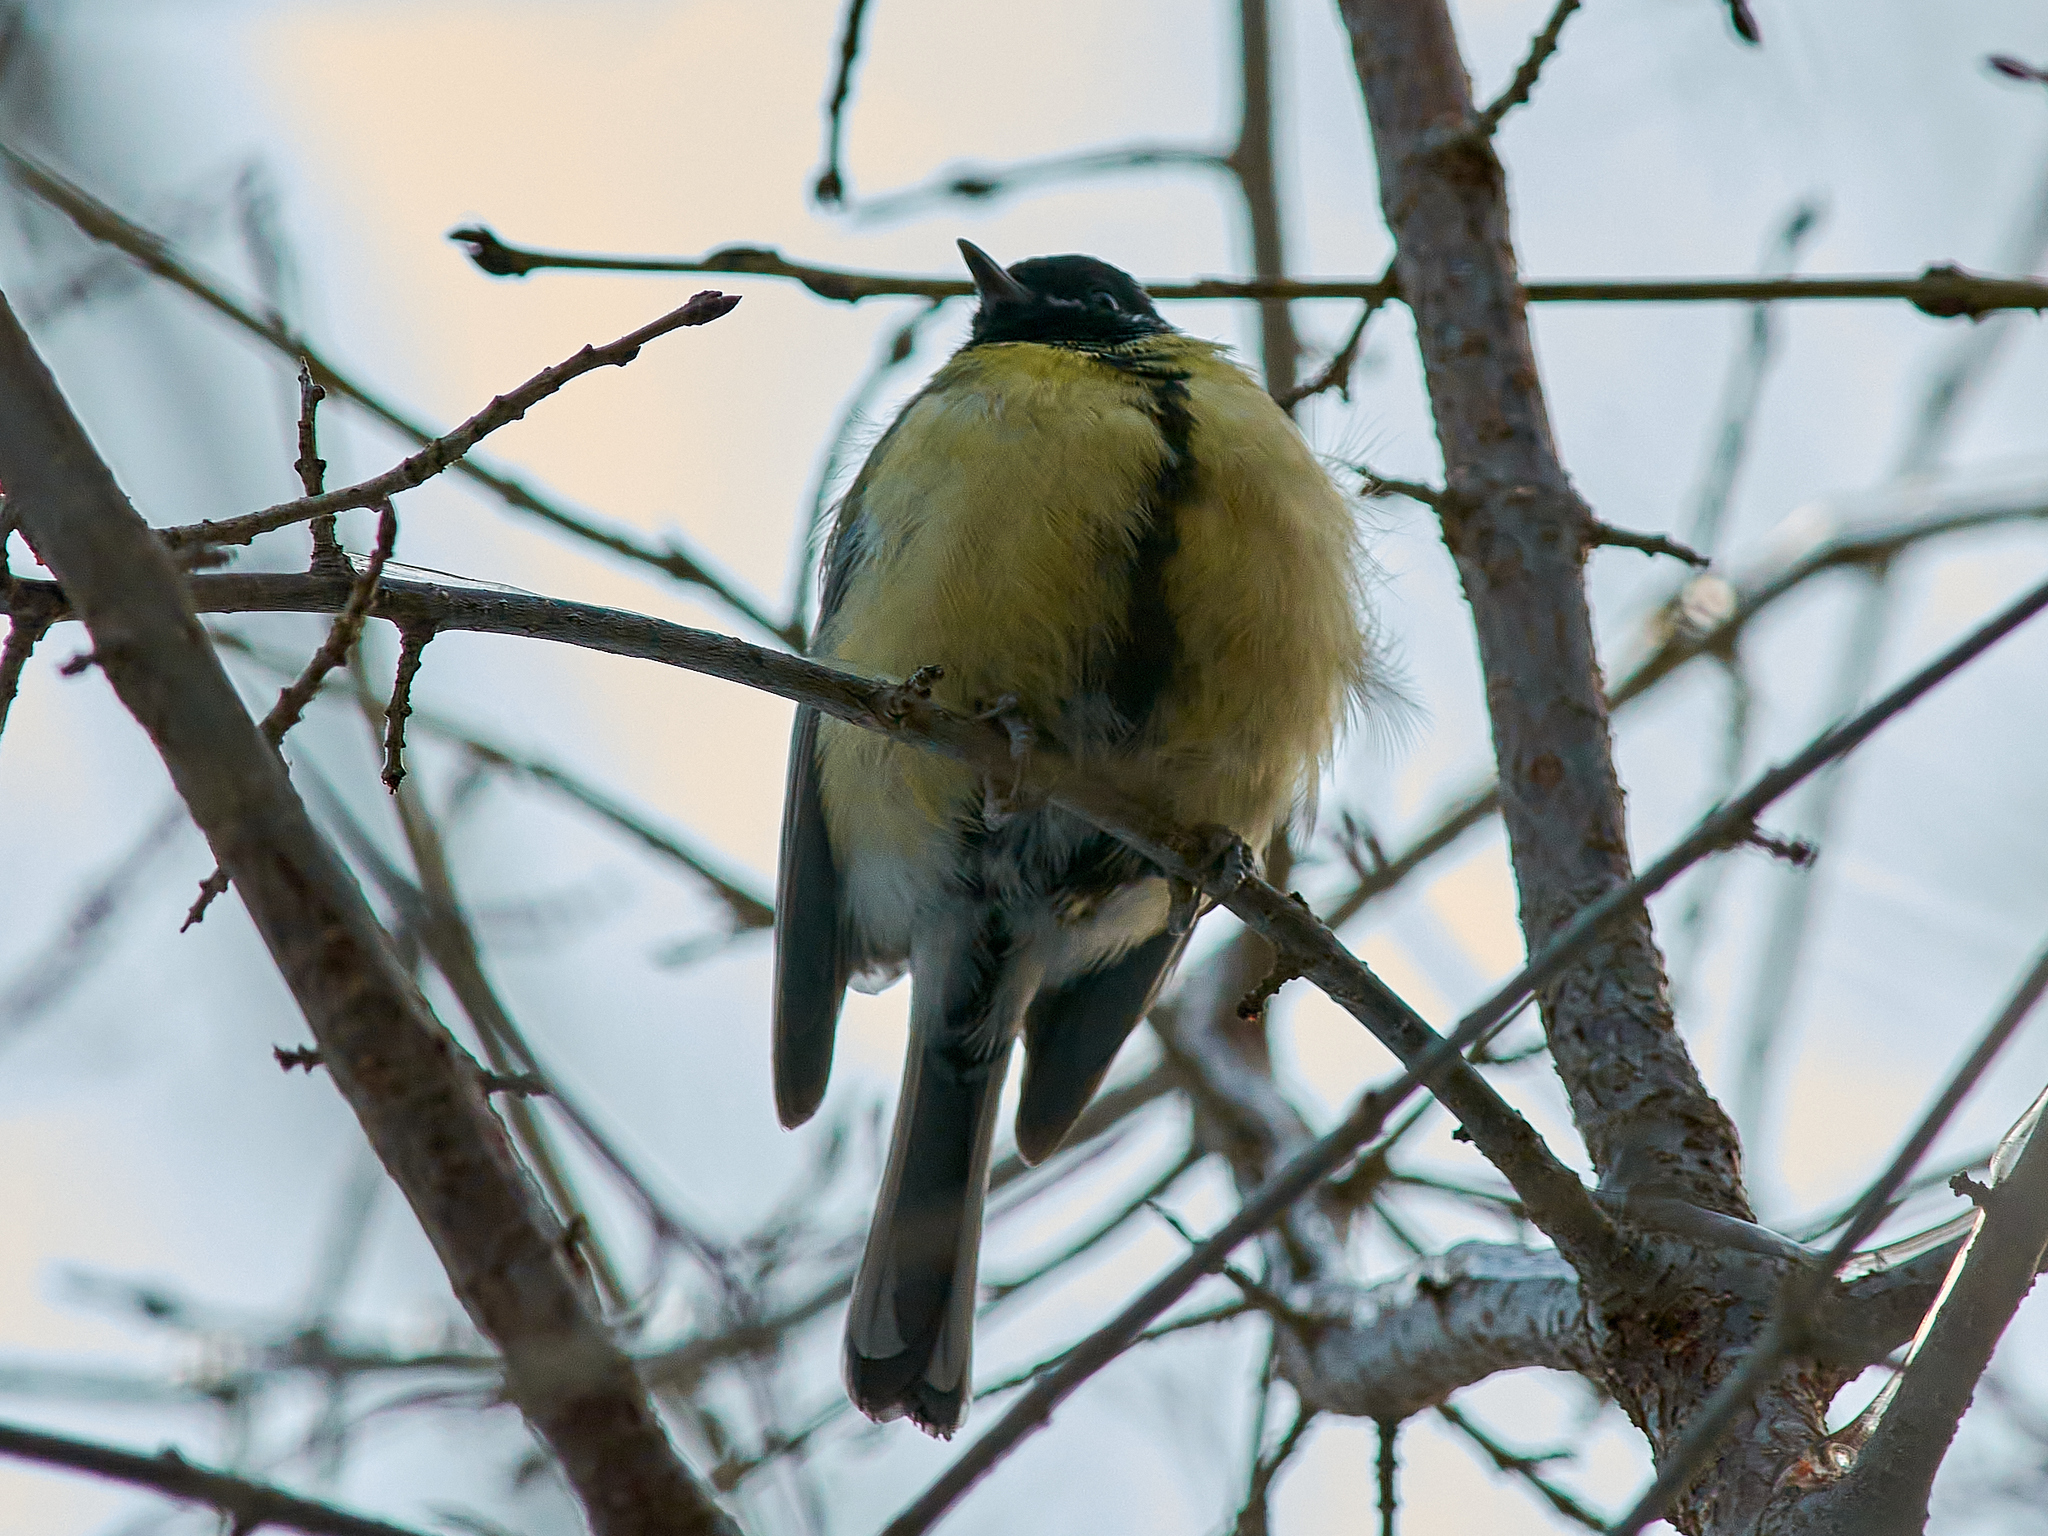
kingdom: Animalia
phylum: Chordata
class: Aves
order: Passeriformes
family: Paridae
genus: Parus
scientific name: Parus major
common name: Great tit
